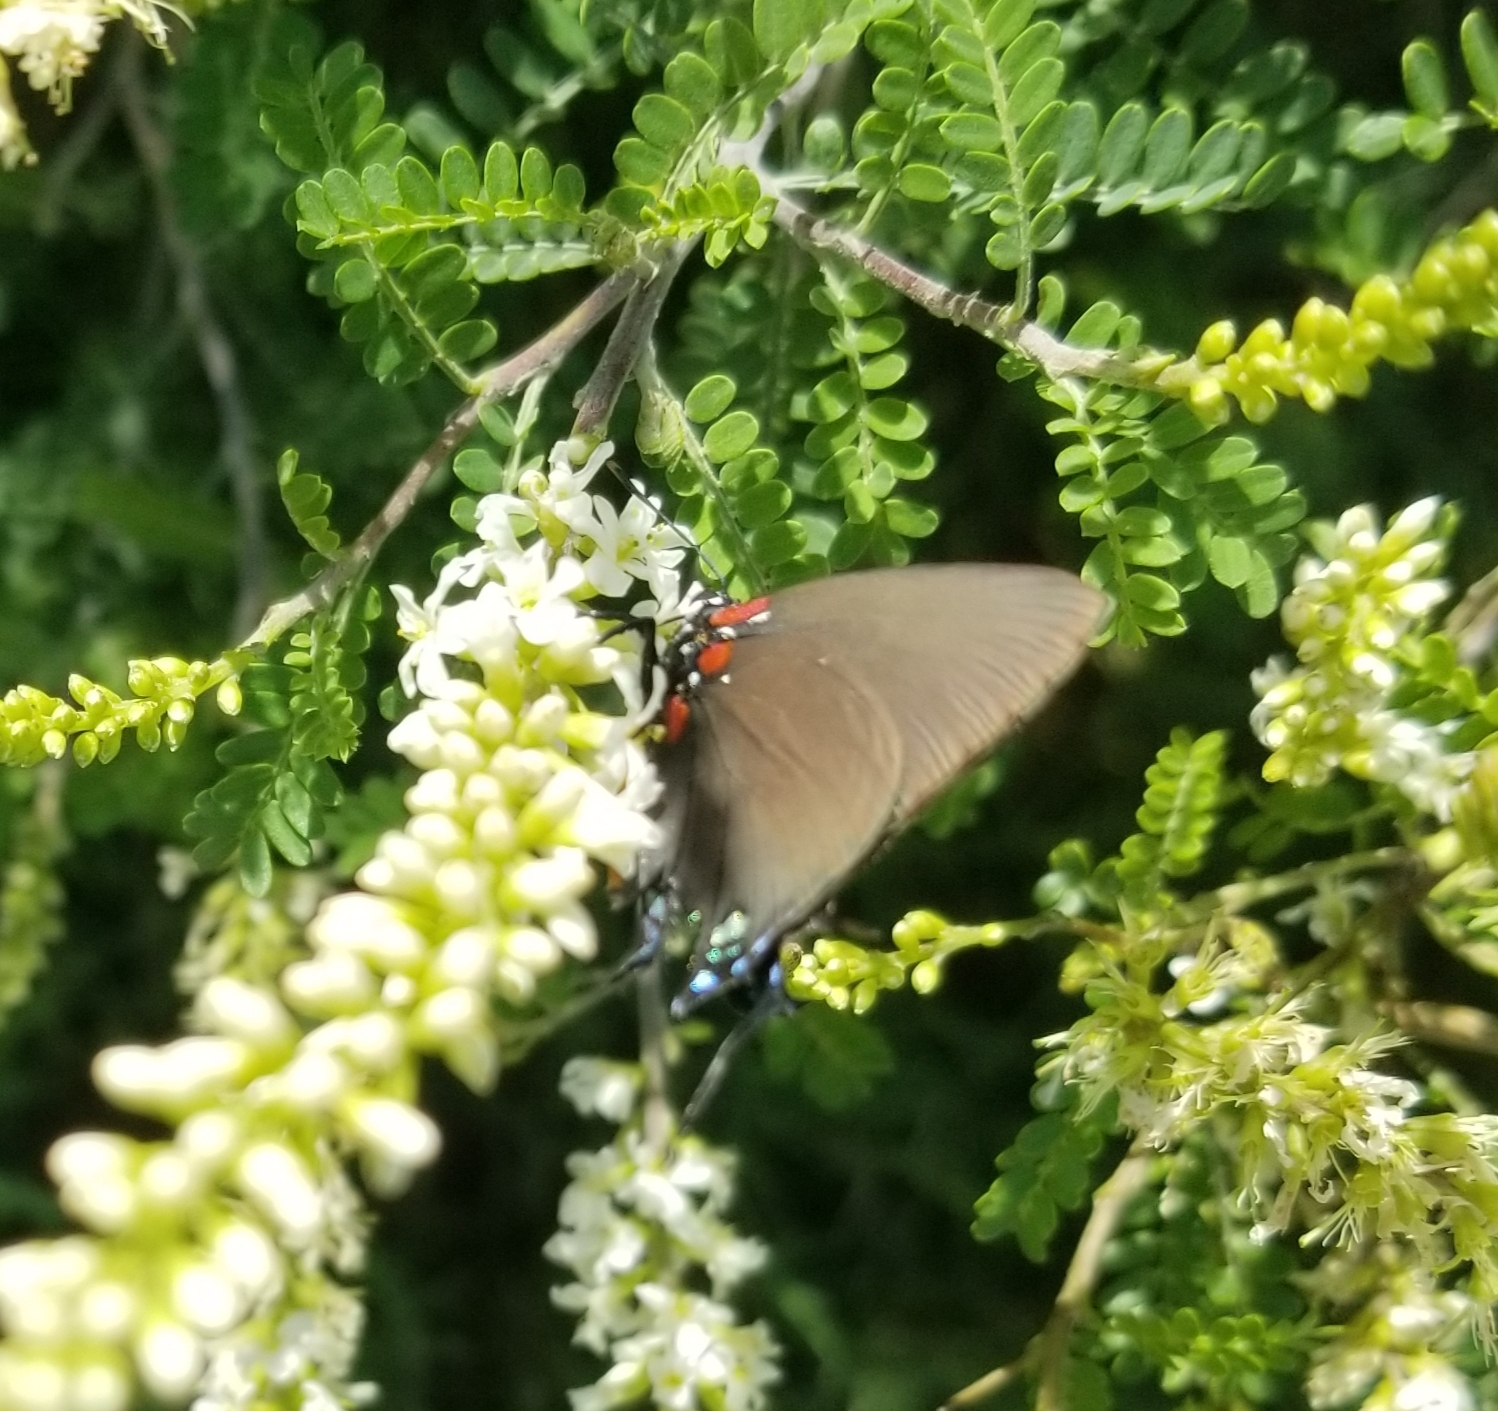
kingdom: Animalia
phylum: Arthropoda
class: Insecta
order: Lepidoptera
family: Lycaenidae
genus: Atlides
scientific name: Atlides halesus
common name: Great purple hairstreak
